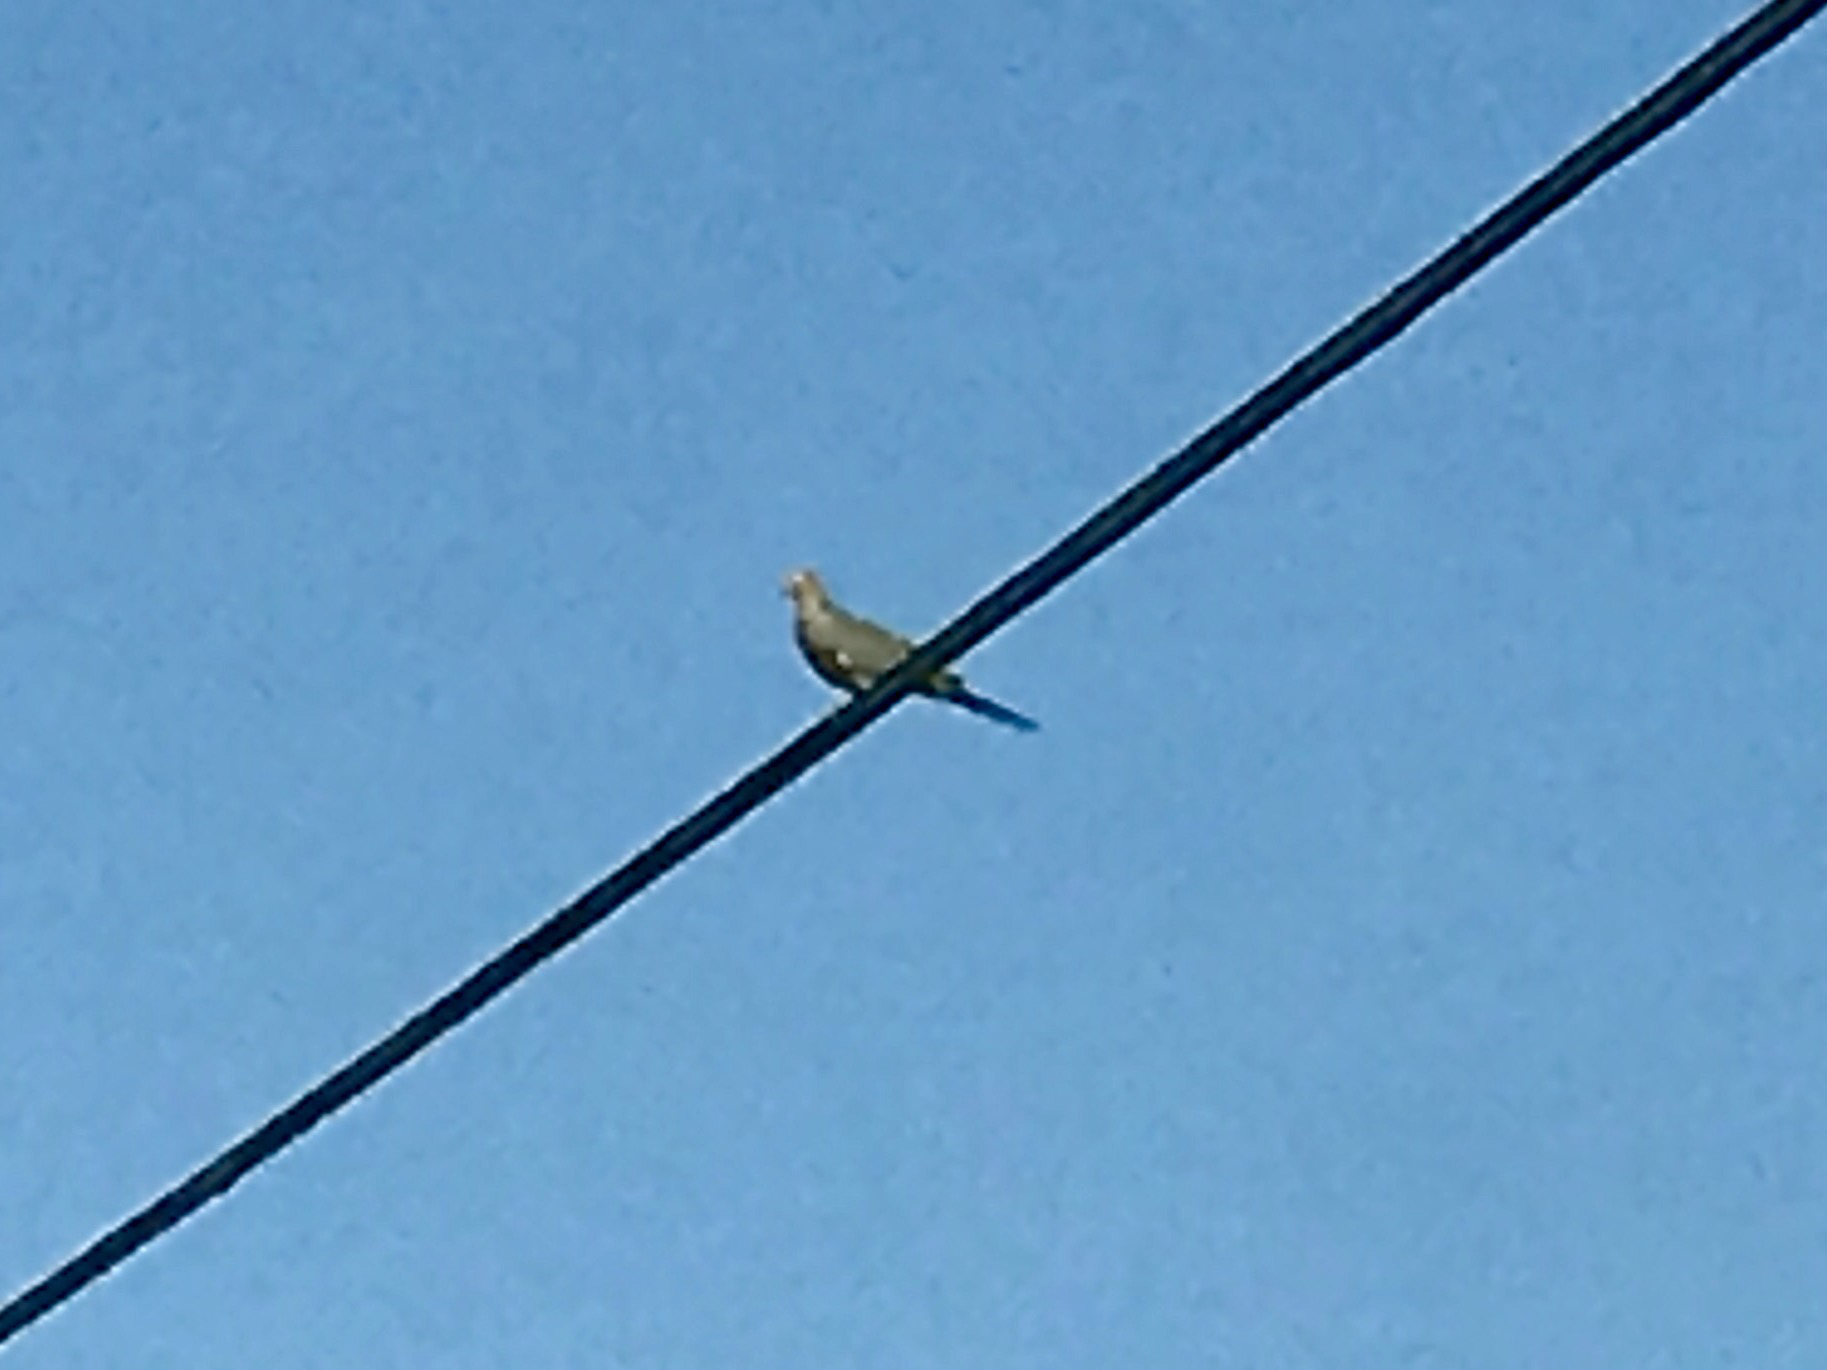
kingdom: Animalia
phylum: Chordata
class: Aves
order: Columbiformes
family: Columbidae
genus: Zenaida
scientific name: Zenaida macroura
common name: Mourning dove
